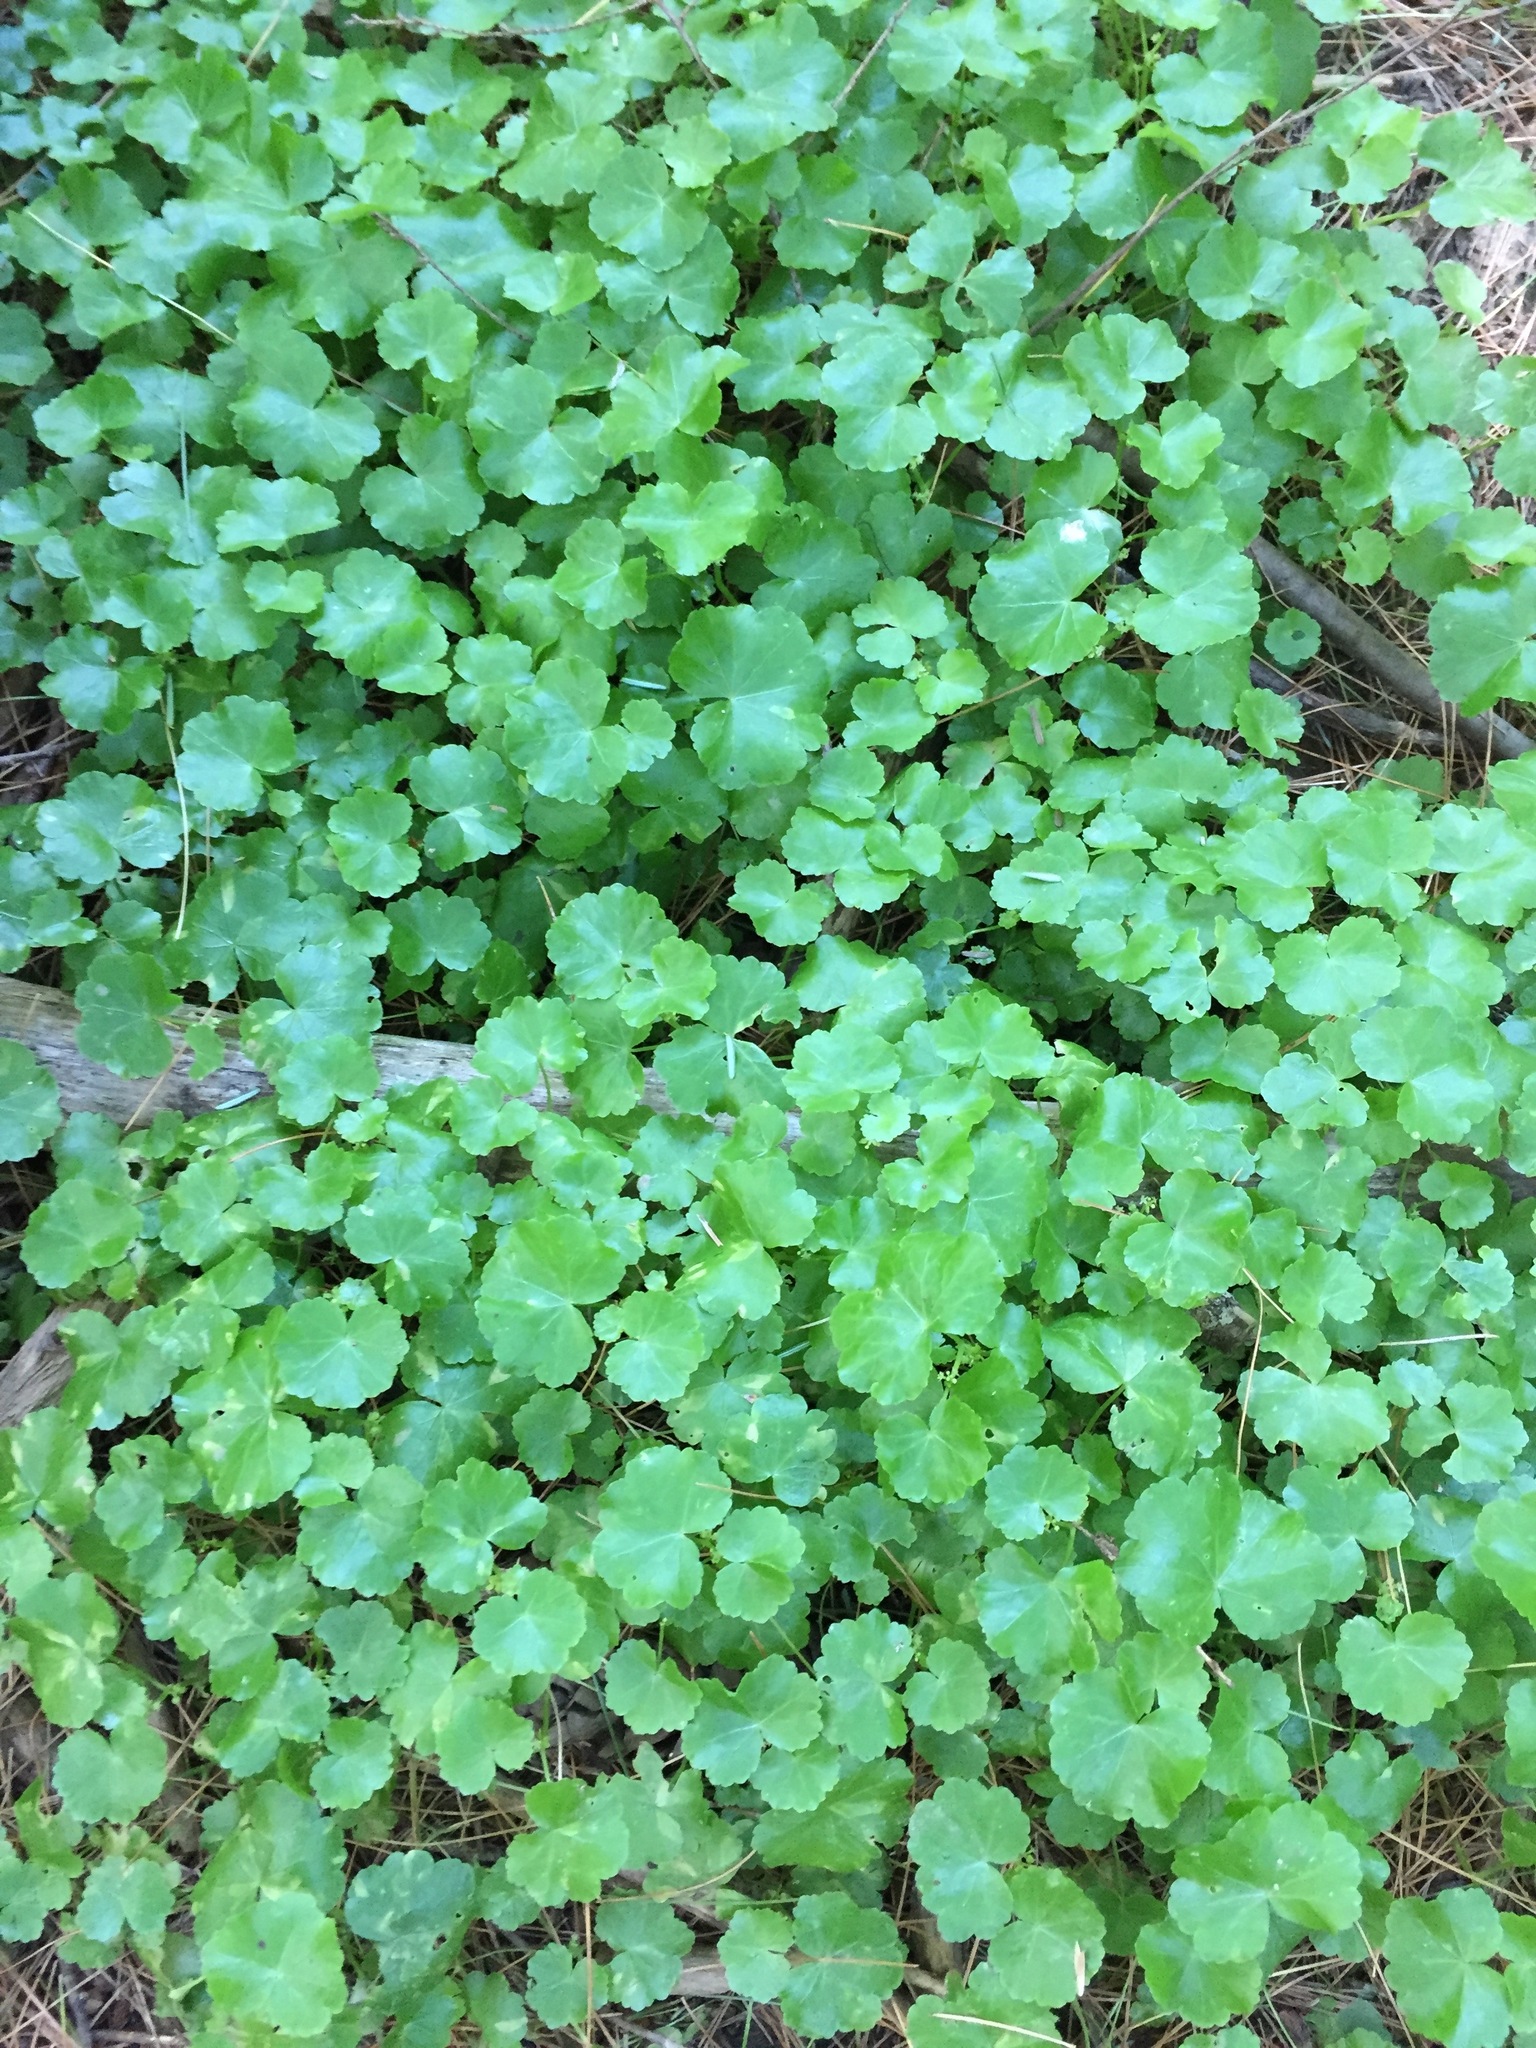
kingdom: Plantae
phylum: Tracheophyta
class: Magnoliopsida
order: Apiales
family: Araliaceae
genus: Hydrocotyle
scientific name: Hydrocotyle americana
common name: American water-pennywort
